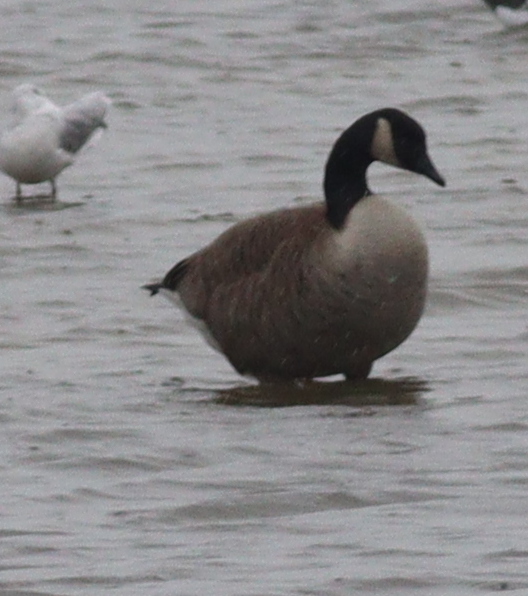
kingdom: Animalia
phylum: Chordata
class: Aves
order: Anseriformes
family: Anatidae
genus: Branta
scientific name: Branta canadensis
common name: Canada goose
